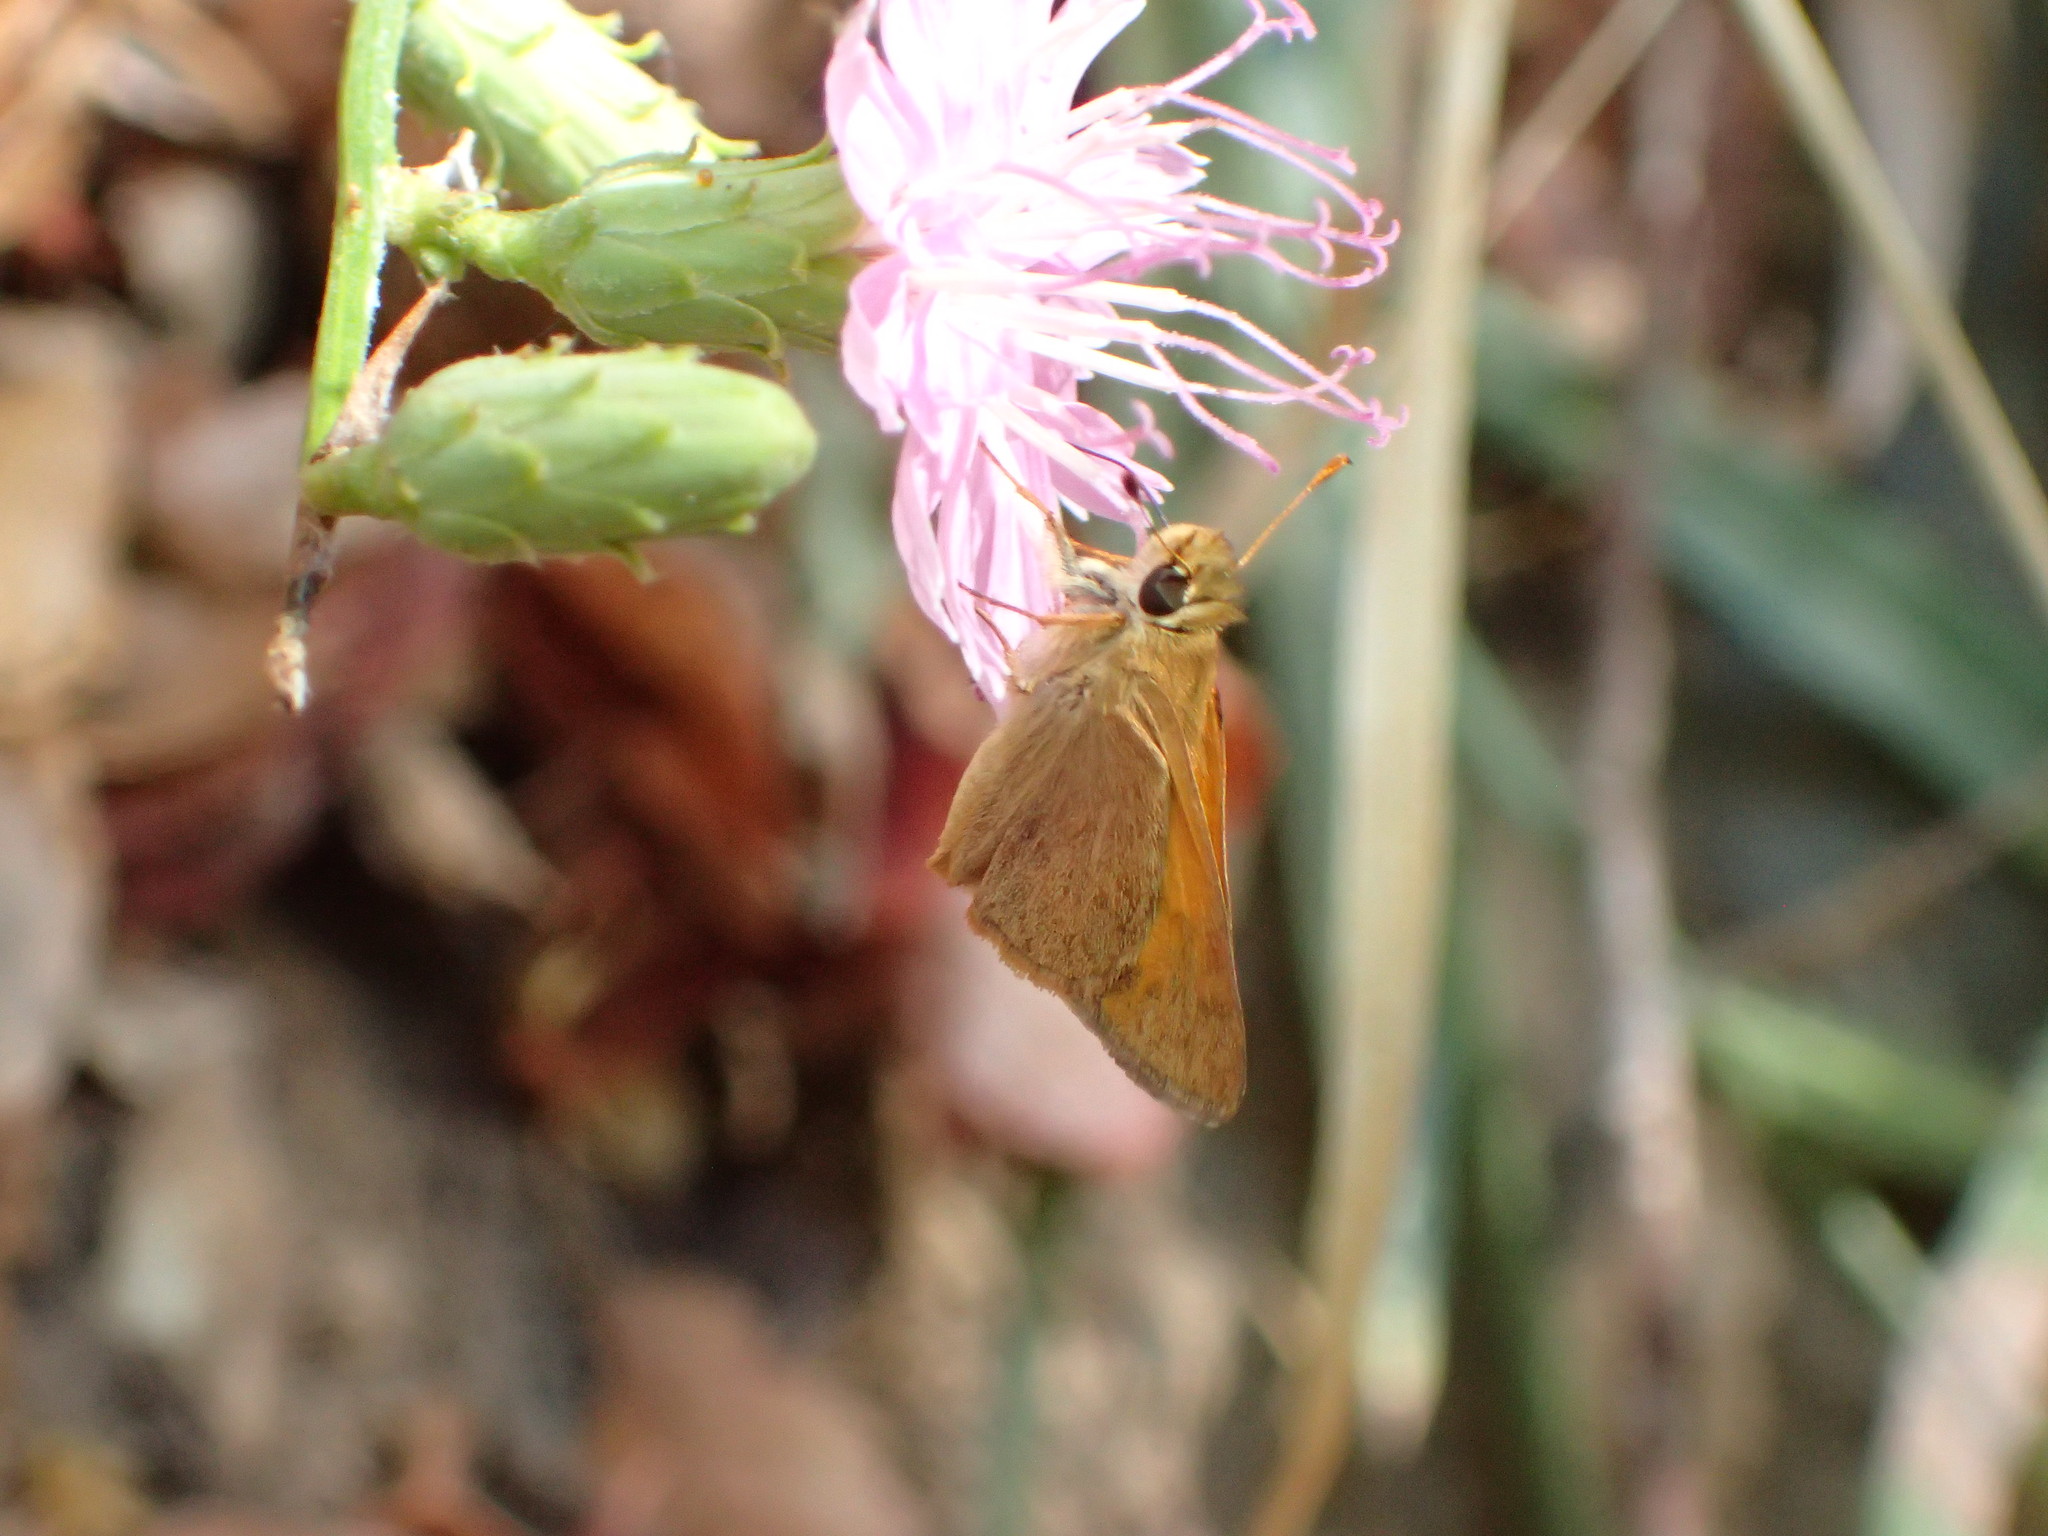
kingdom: Animalia
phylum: Arthropoda
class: Insecta
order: Lepidoptera
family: Hesperiidae
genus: Ochlodes
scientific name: Ochlodes sylvanoides
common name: Woodland skipper
